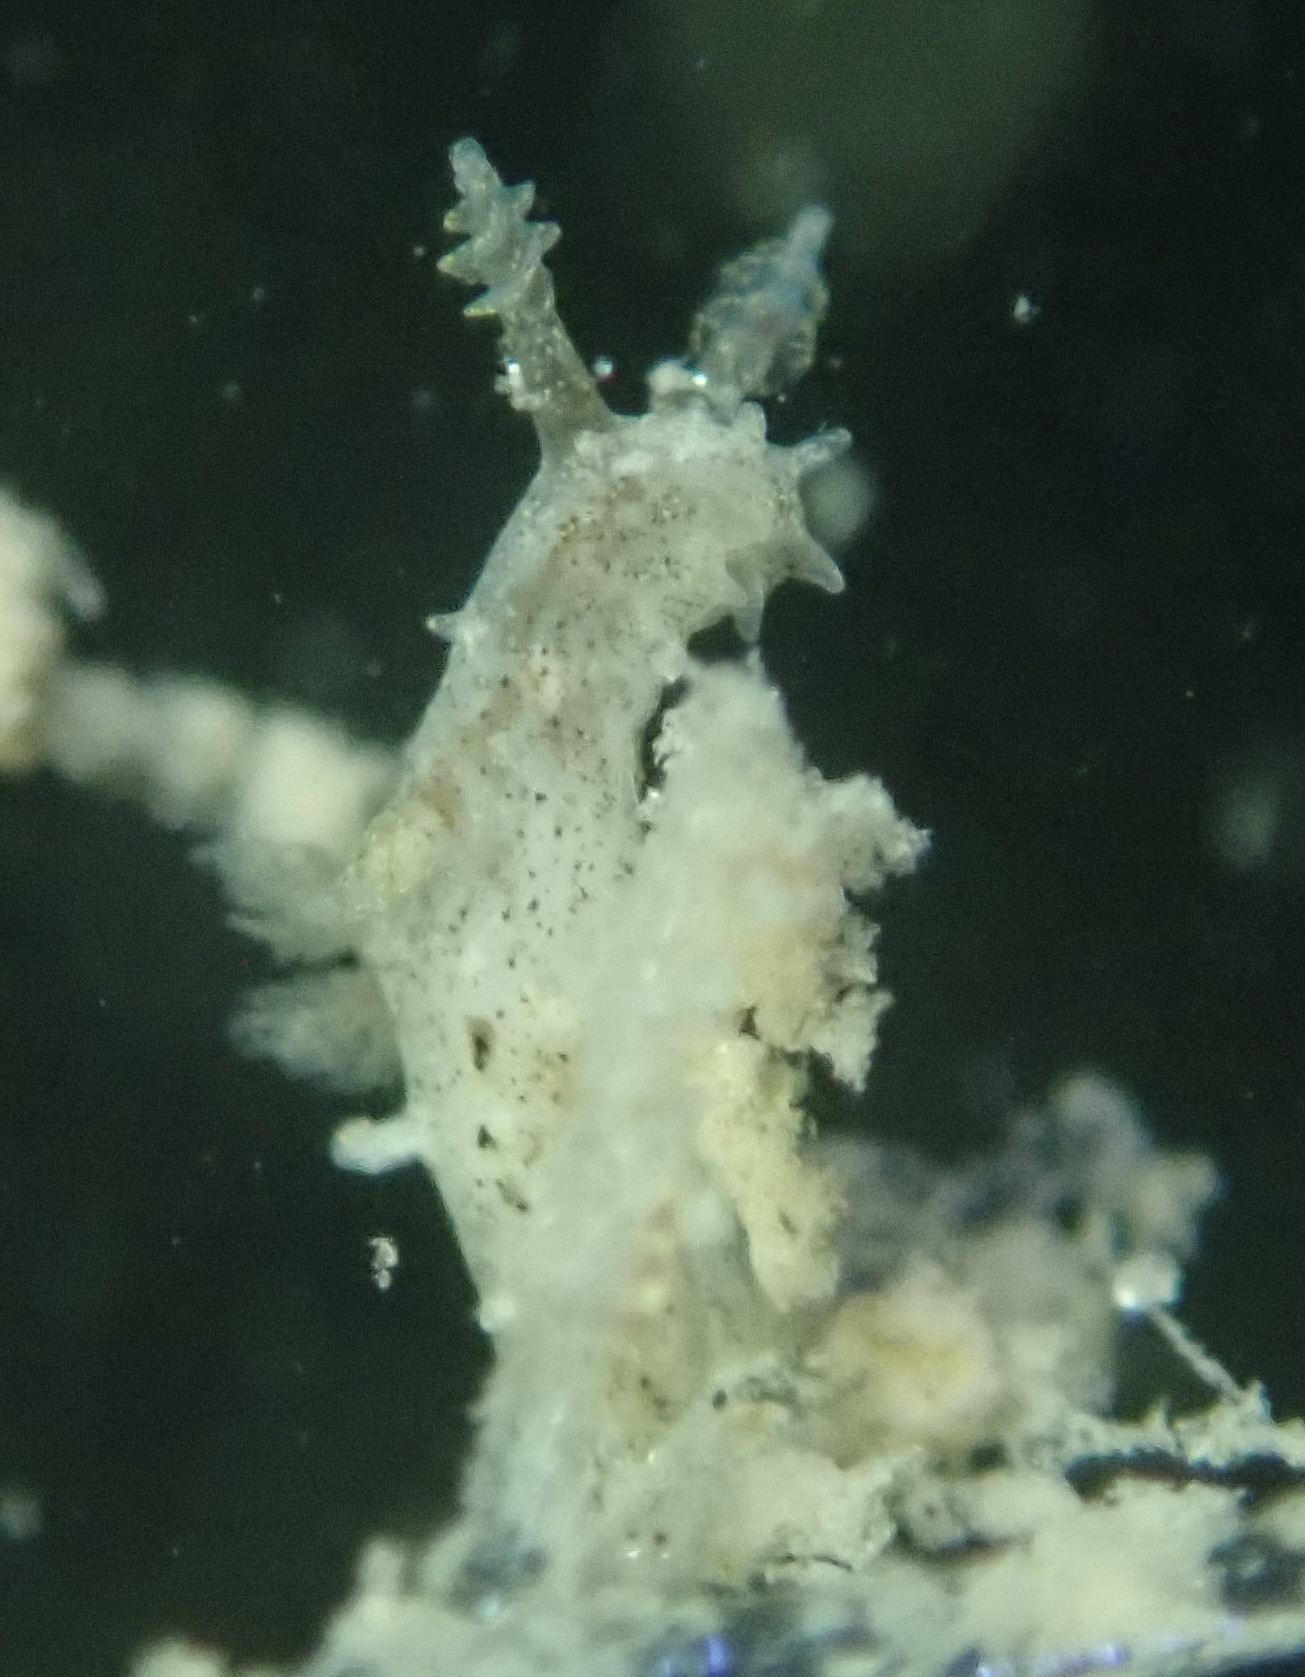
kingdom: Animalia
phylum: Mollusca
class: Gastropoda
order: Nudibranchia
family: Polyceridae
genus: Polycerella
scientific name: Polycerella glandulosa
